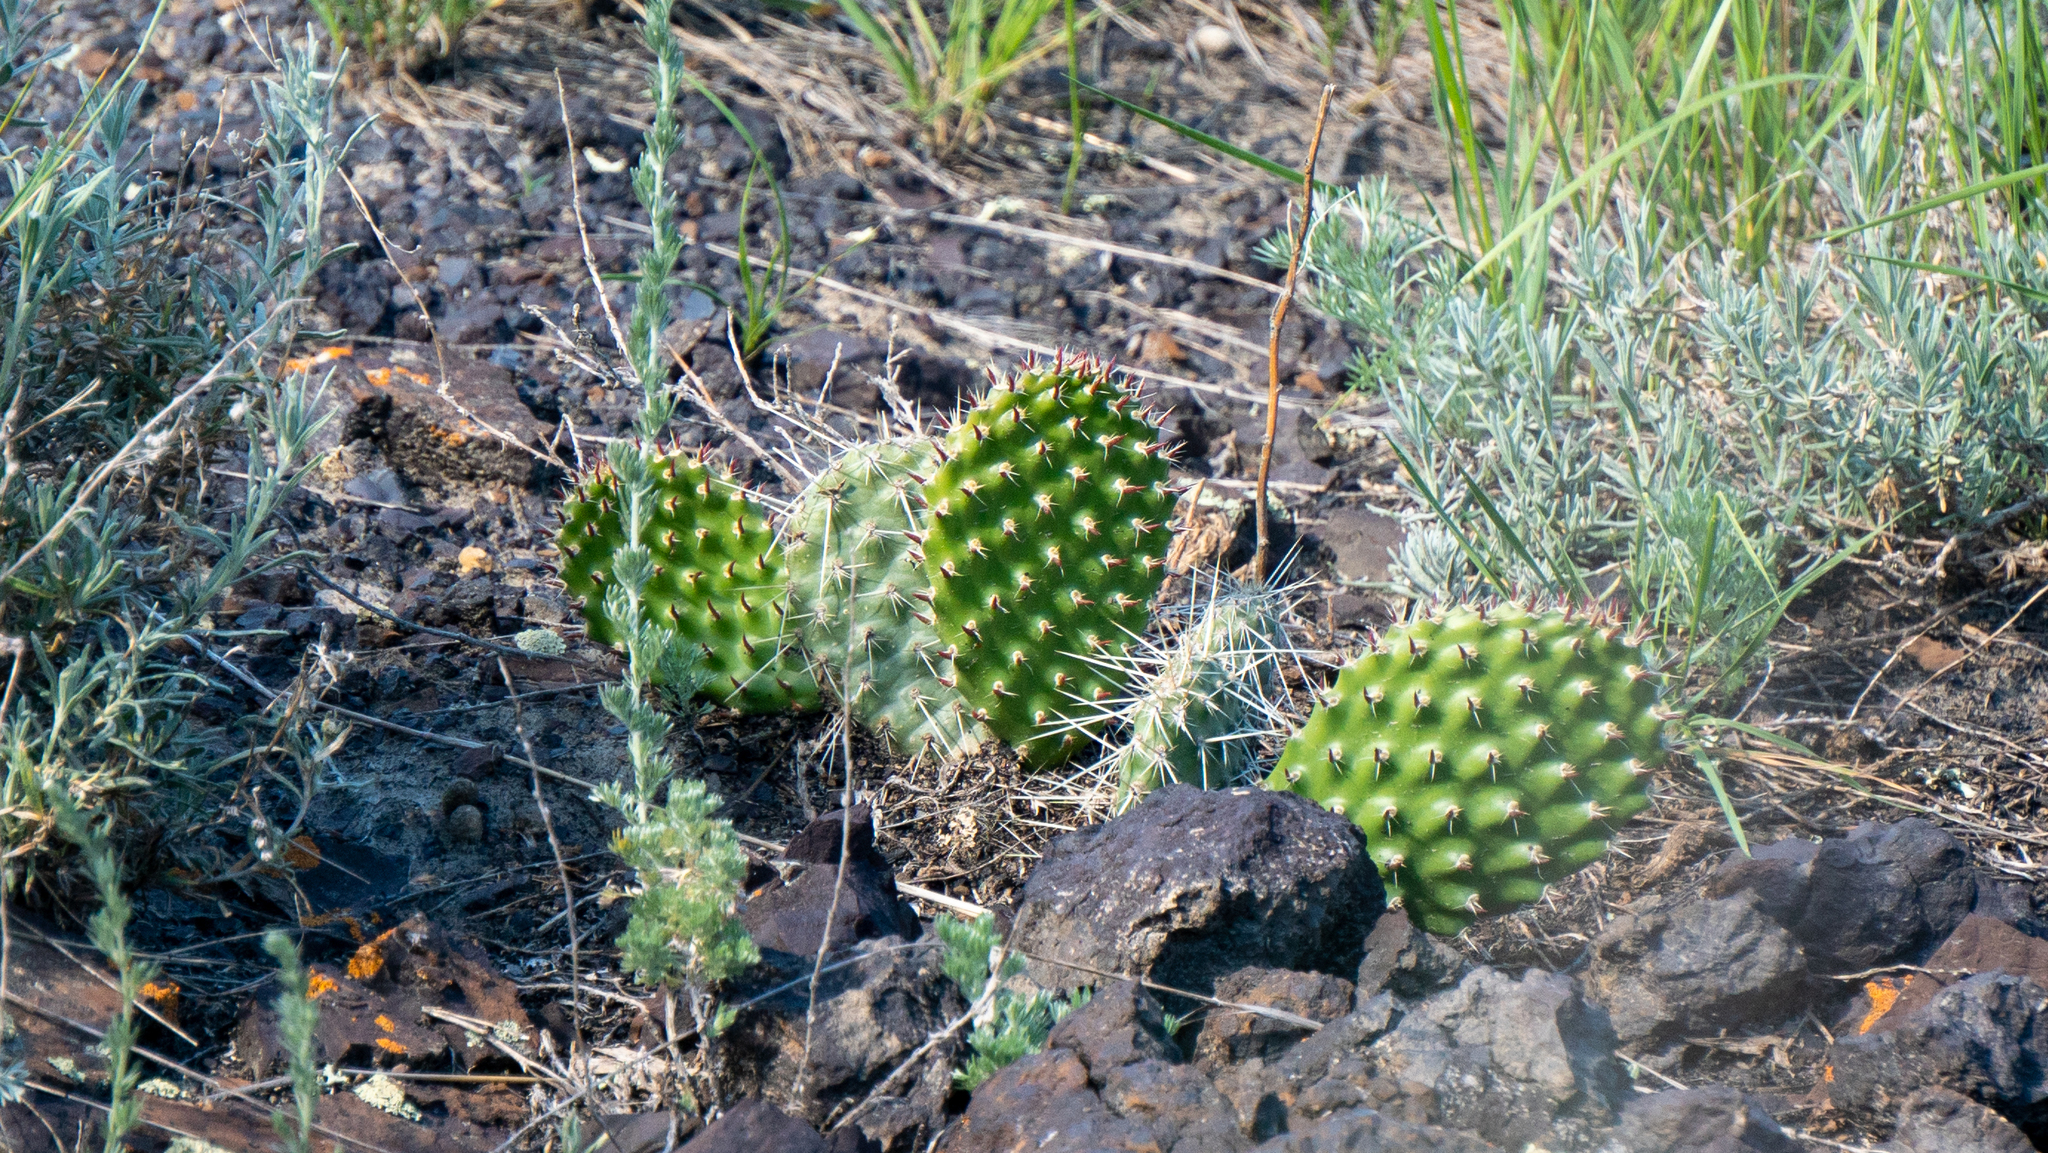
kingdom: Plantae
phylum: Tracheophyta
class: Magnoliopsida
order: Caryophyllales
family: Cactaceae
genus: Opuntia
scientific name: Opuntia polyacantha
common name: Plains prickly-pear
